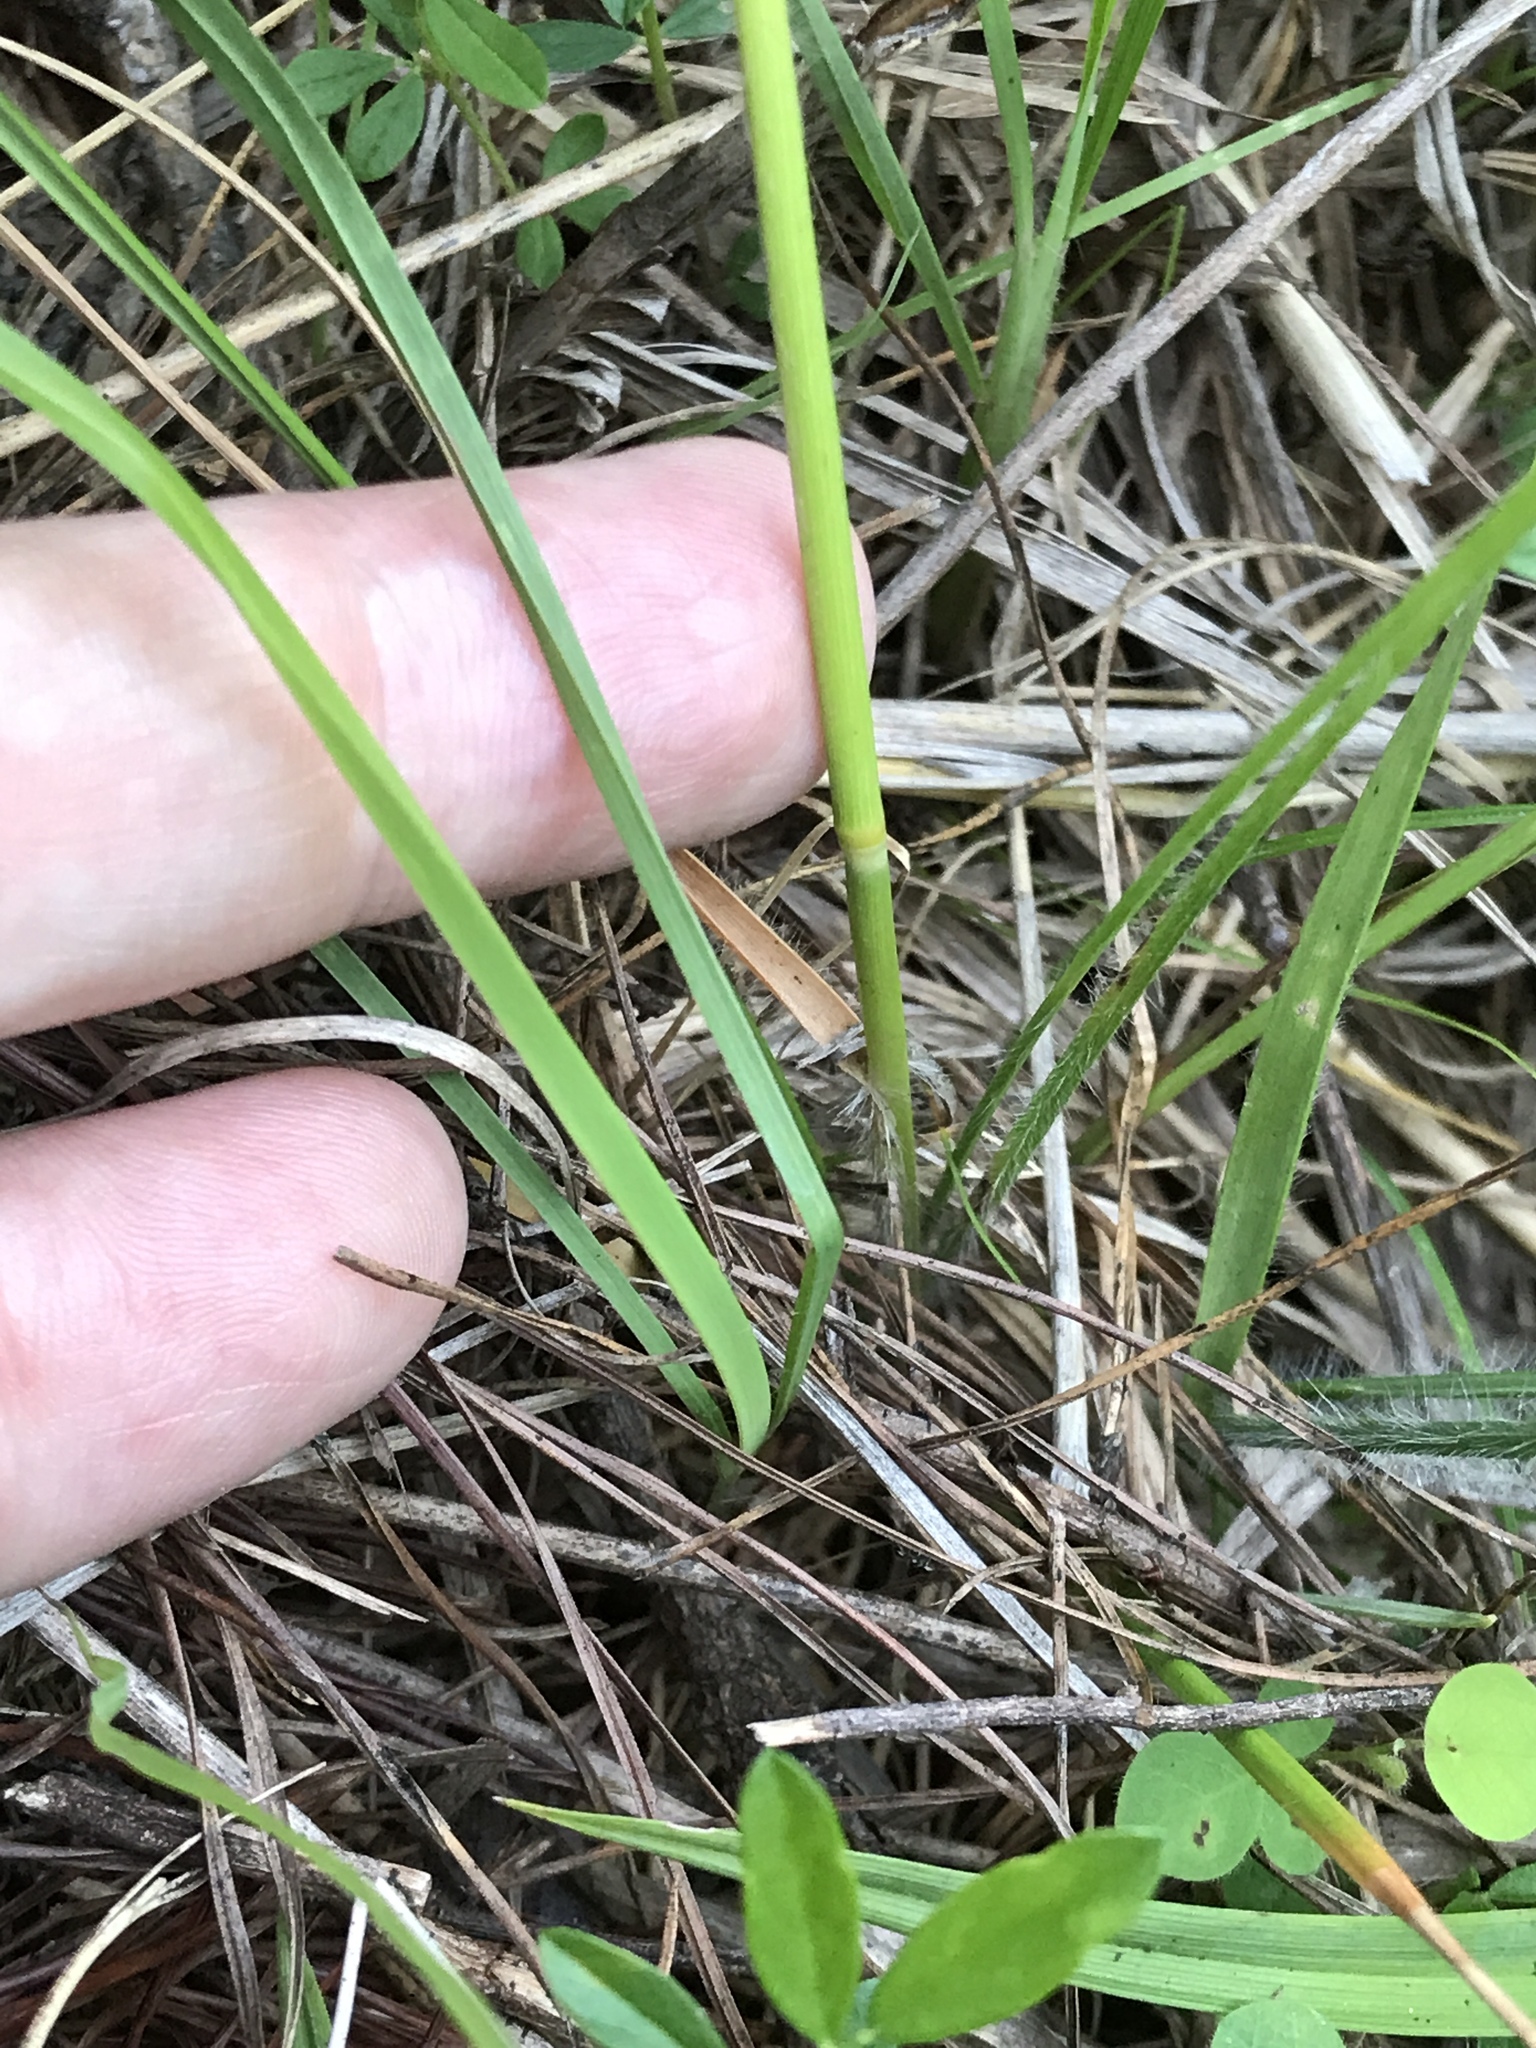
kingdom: Plantae
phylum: Tracheophyta
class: Liliopsida
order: Poales
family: Poaceae
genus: Danthonia
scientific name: Danthonia sericea
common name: Downy danthonia
